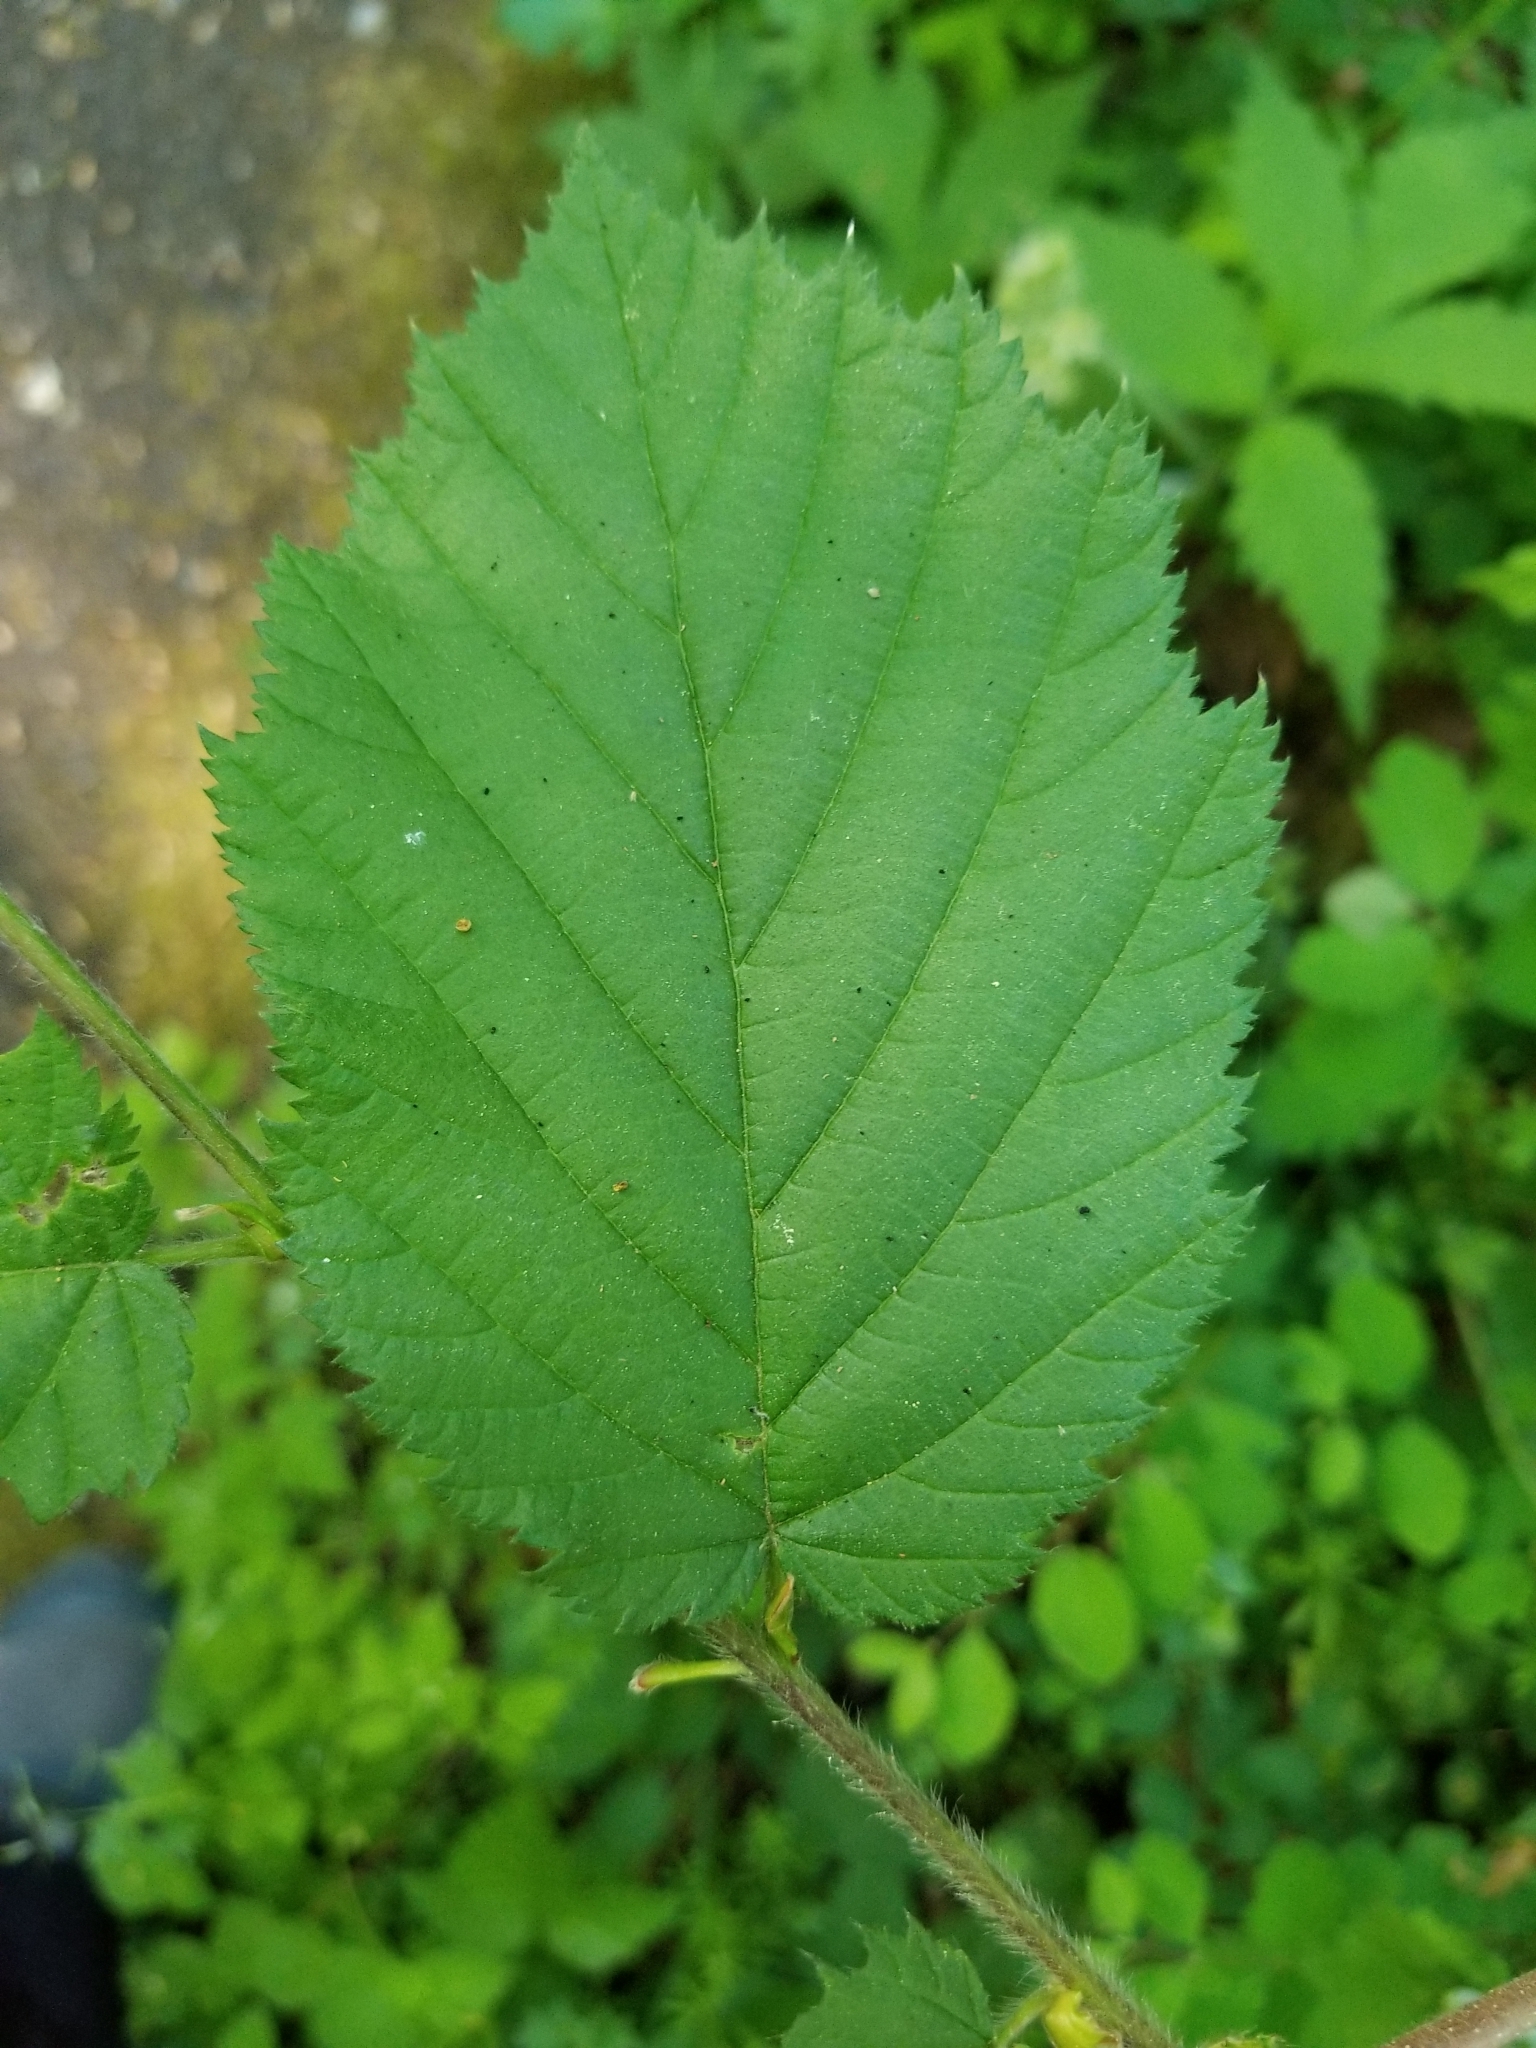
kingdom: Plantae
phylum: Tracheophyta
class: Magnoliopsida
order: Fagales
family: Betulaceae
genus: Corylus
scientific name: Corylus cornuta
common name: Beaked hazel
